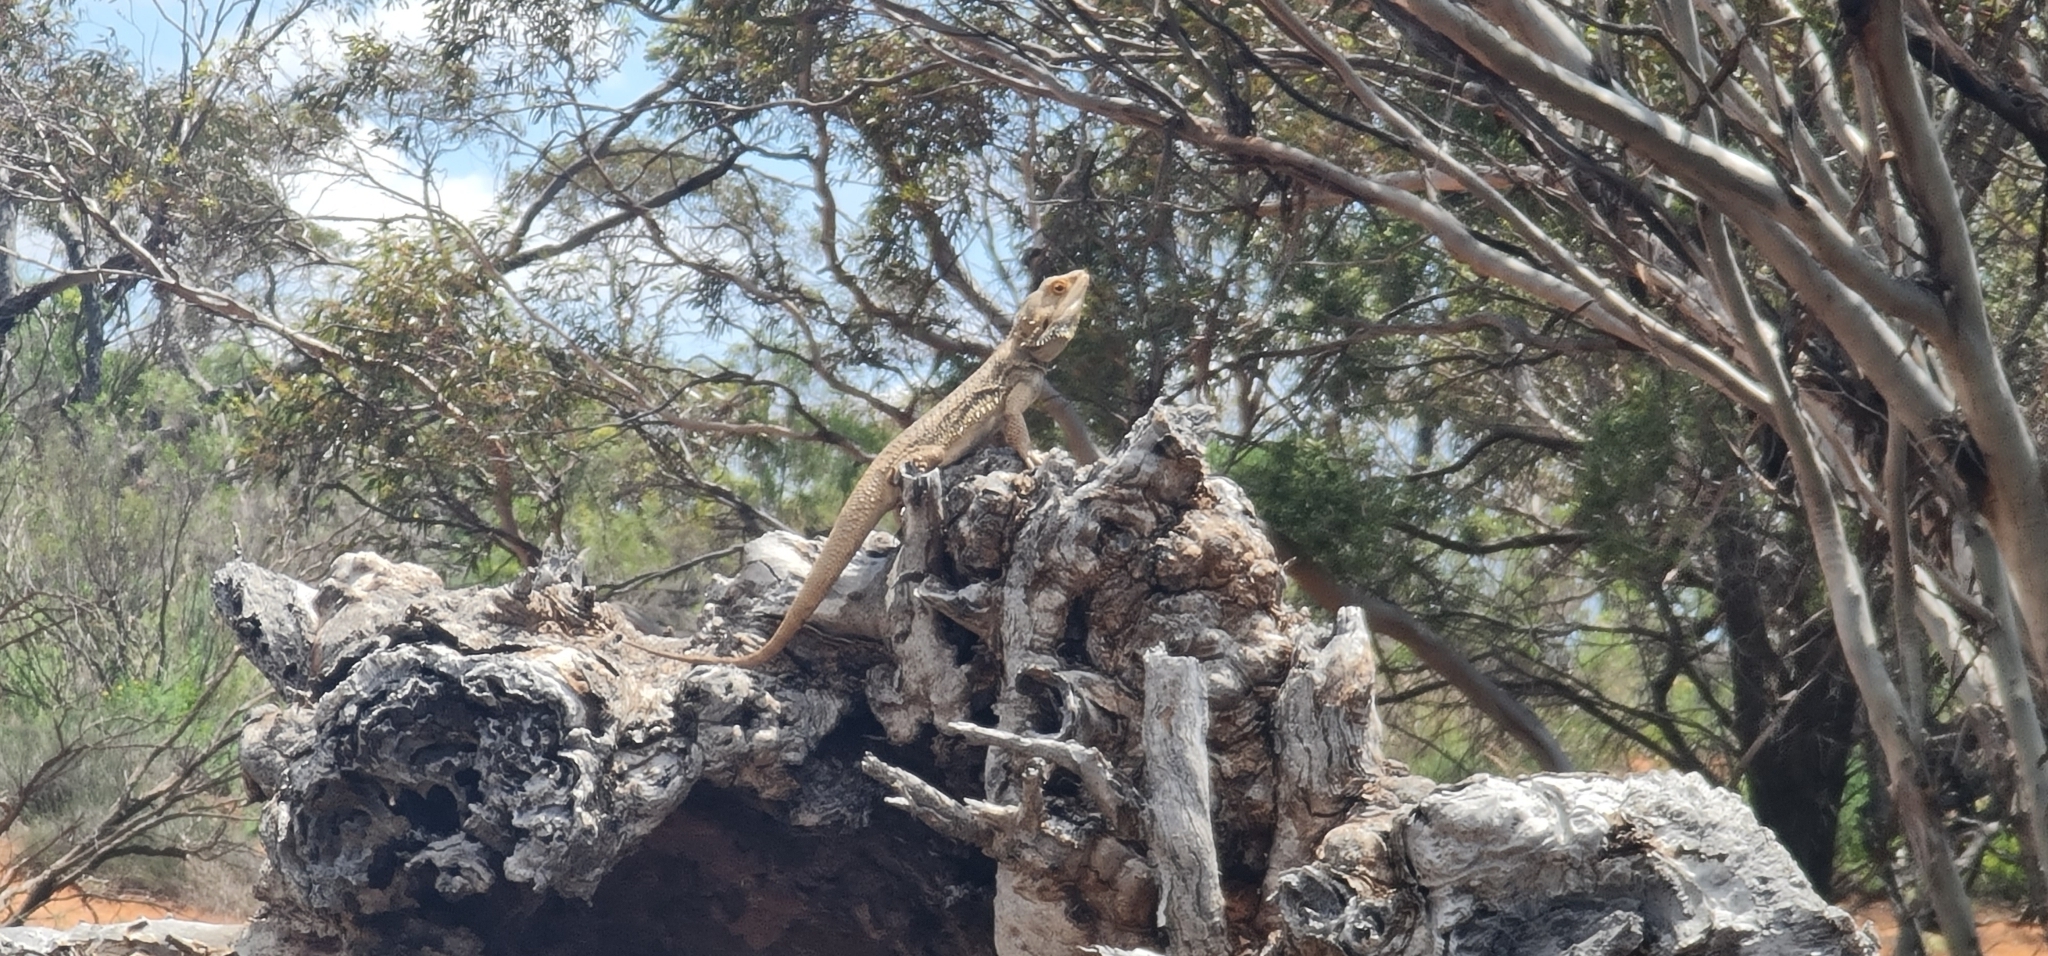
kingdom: Animalia
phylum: Chordata
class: Squamata
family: Agamidae
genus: Pogona
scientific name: Pogona vitticeps
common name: Central bearded dragon
